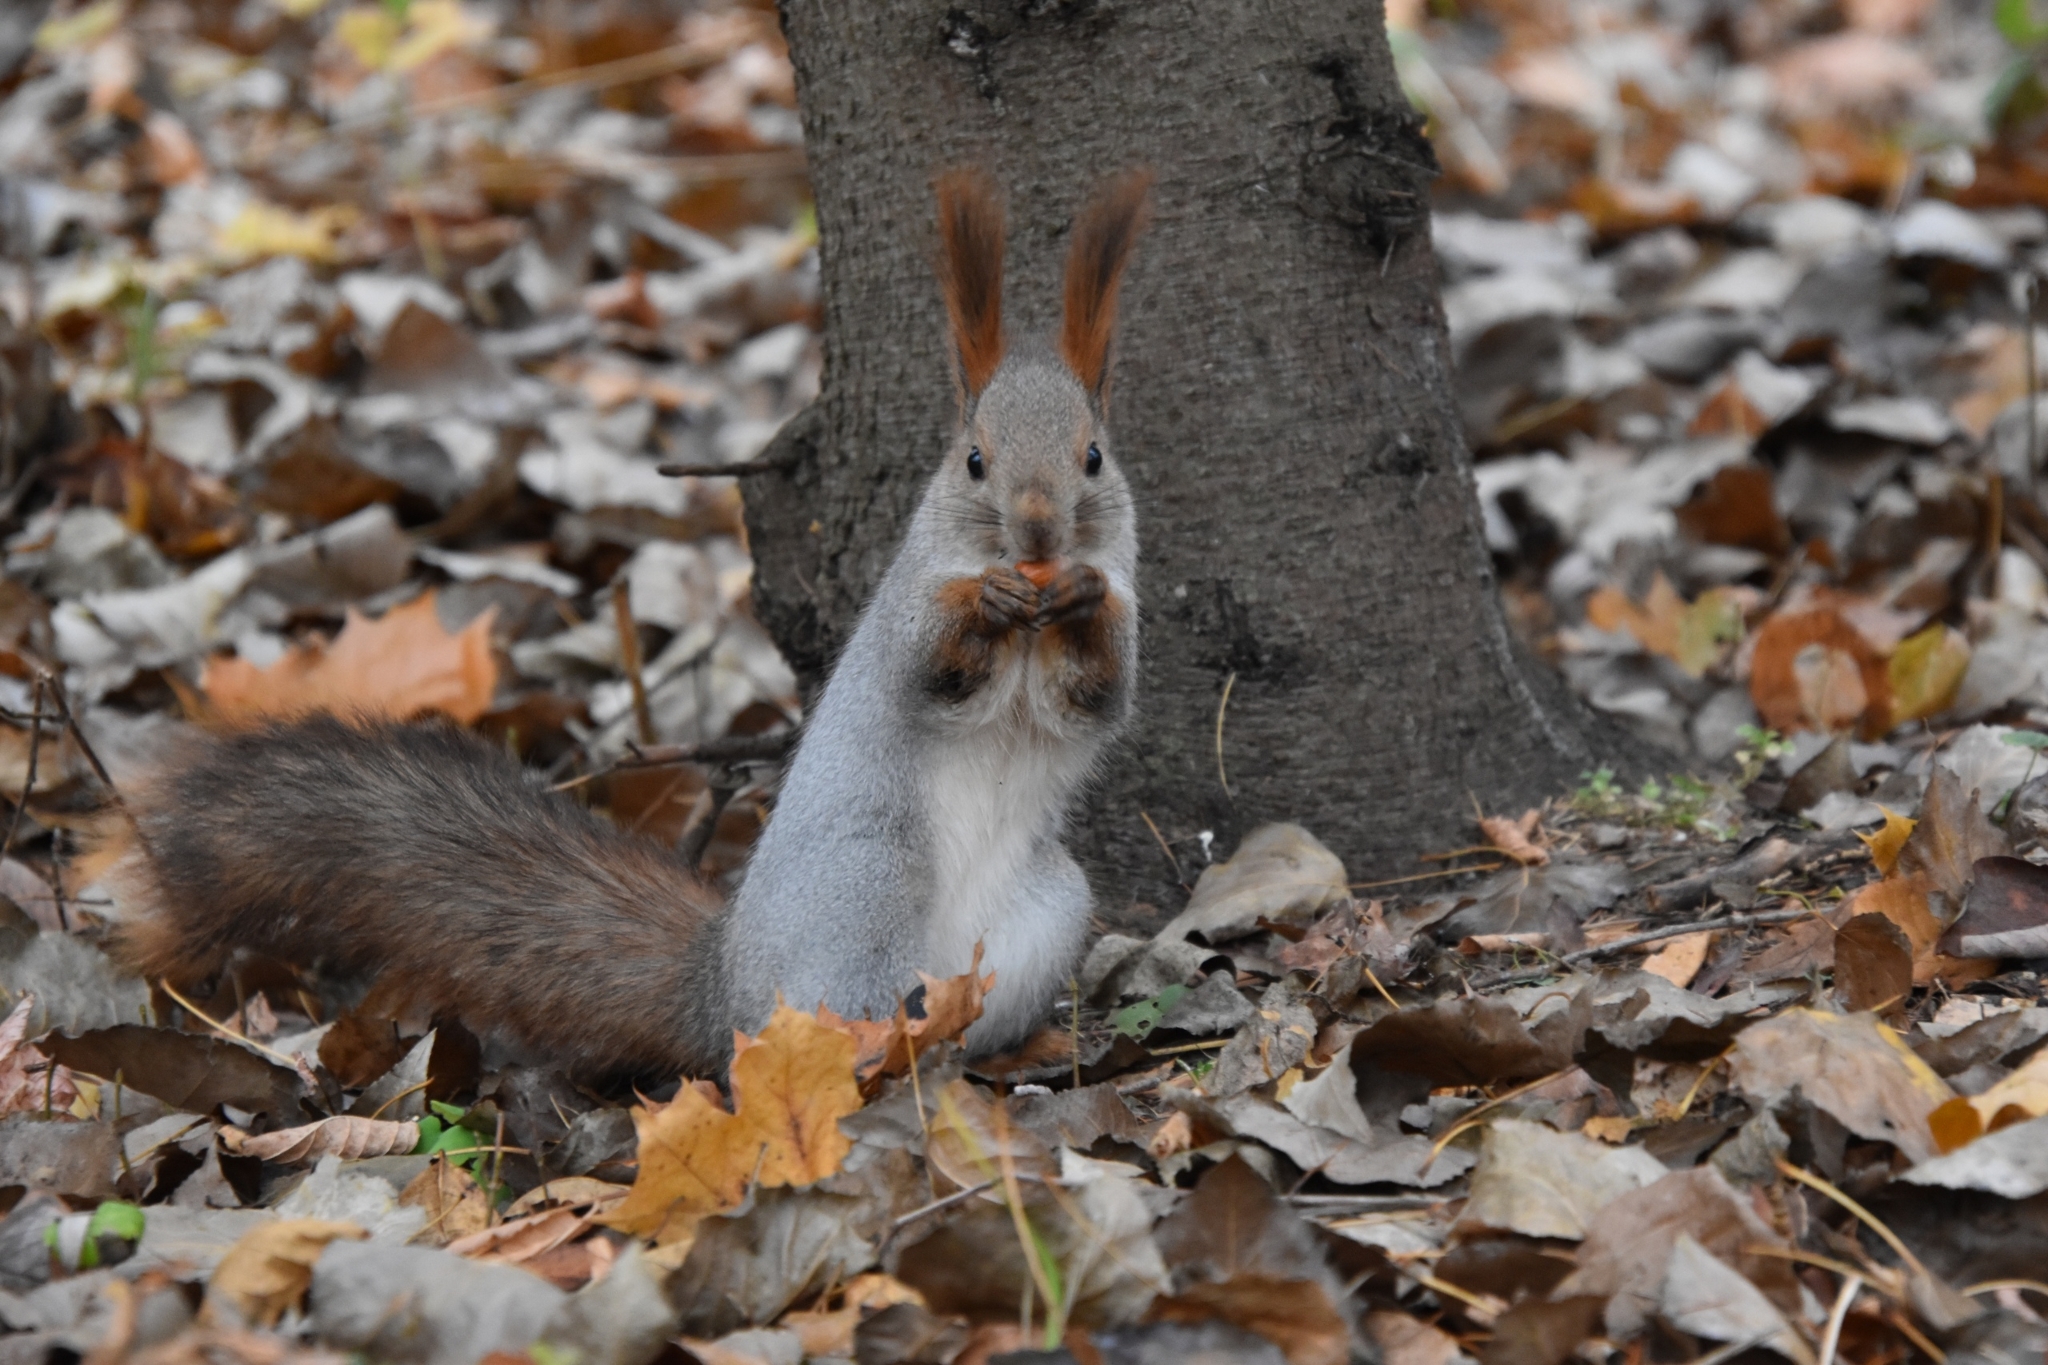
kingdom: Animalia
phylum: Chordata
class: Mammalia
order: Rodentia
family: Sciuridae
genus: Sciurus
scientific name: Sciurus vulgaris
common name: Eurasian red squirrel
